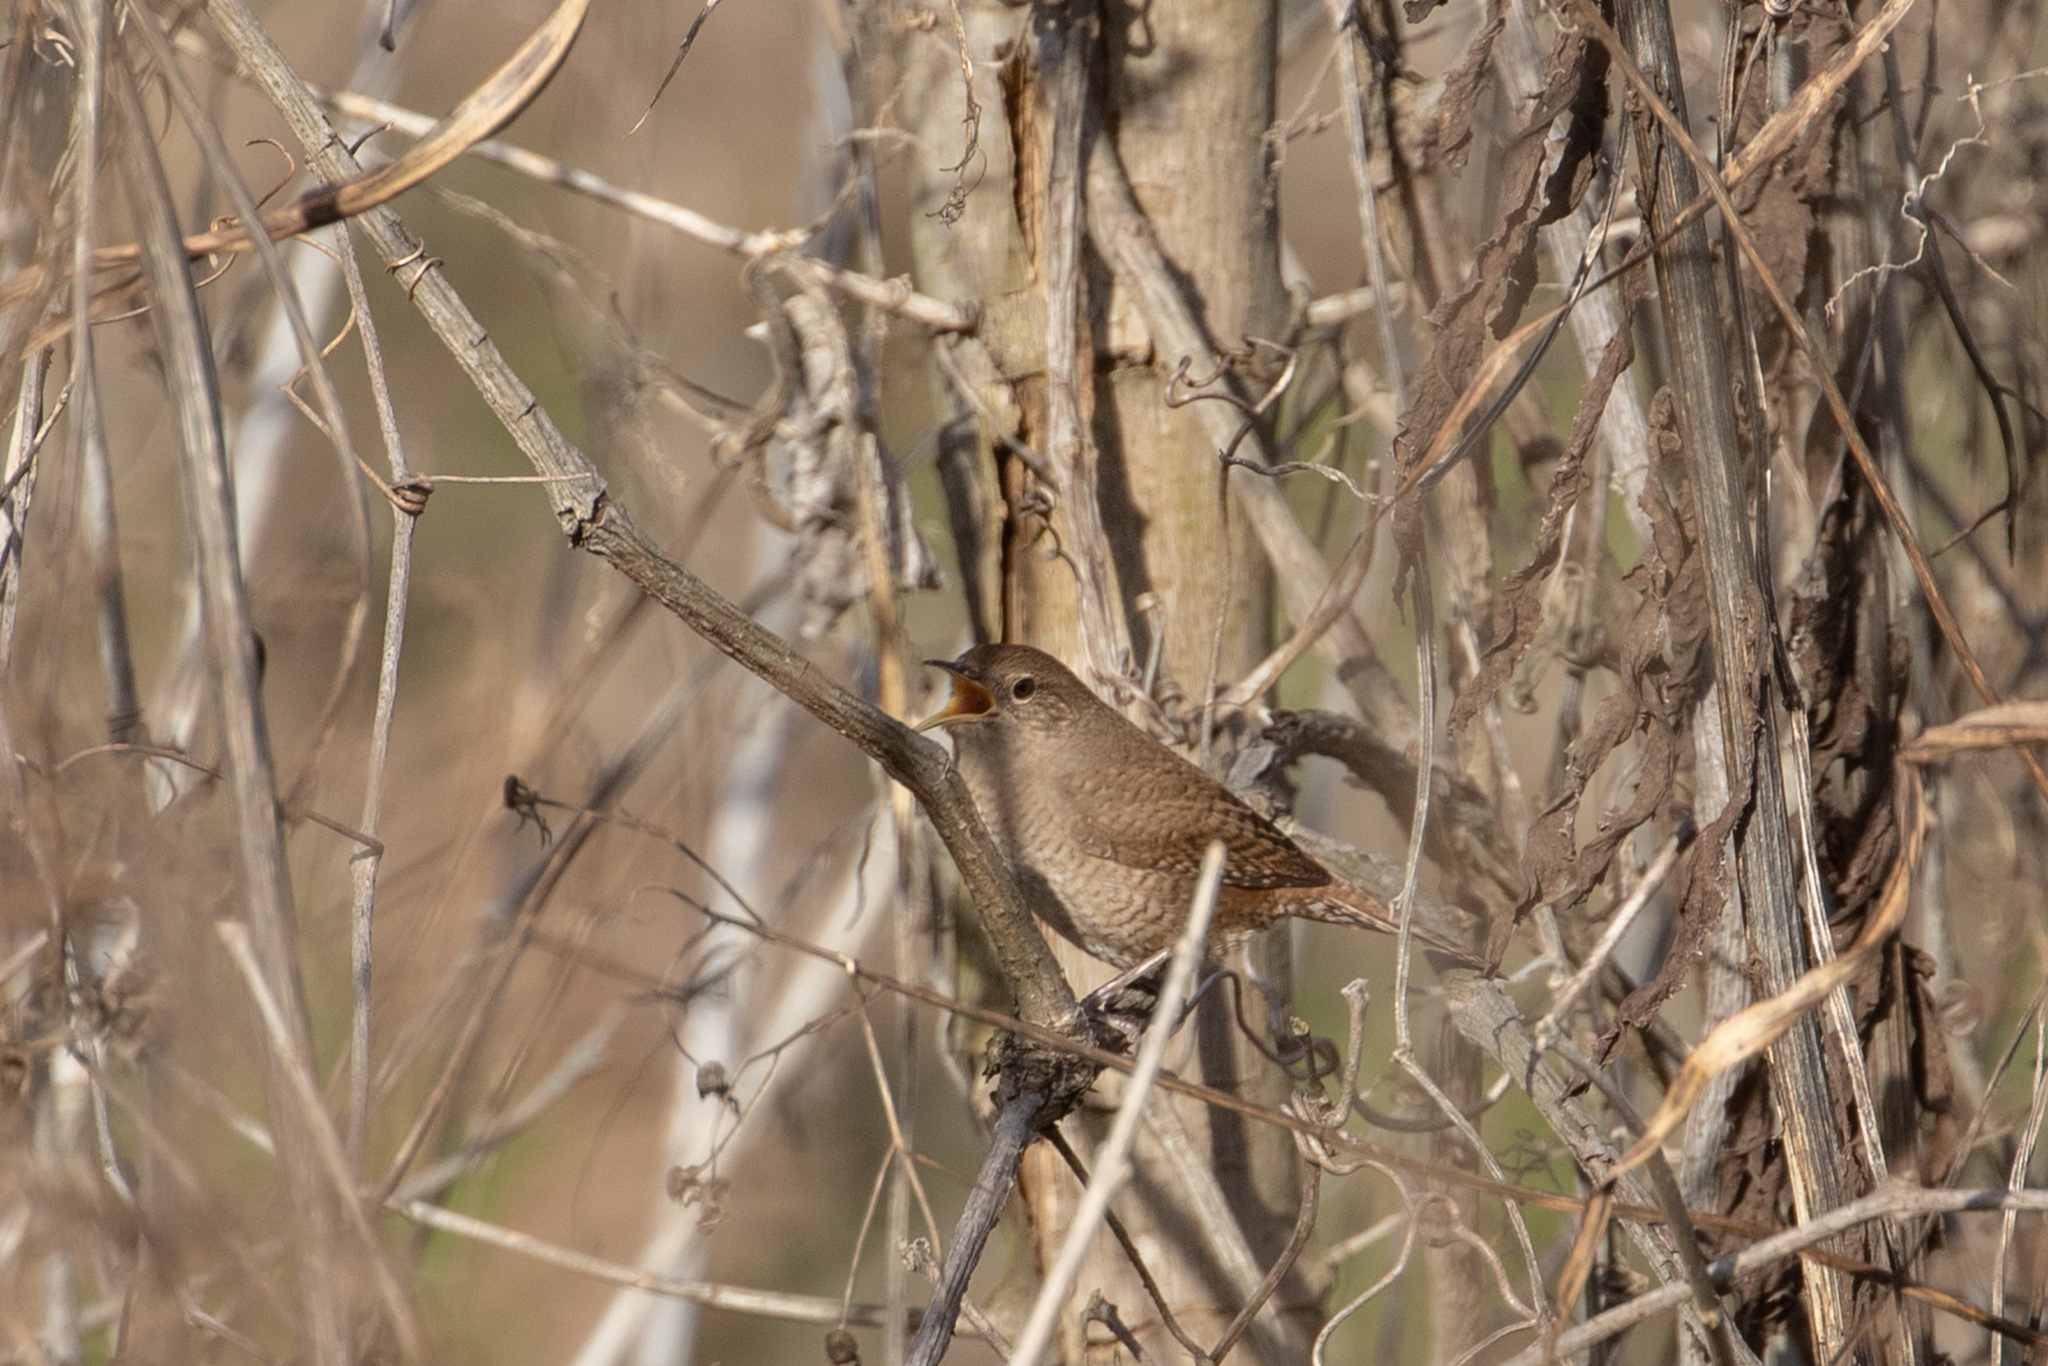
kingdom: Animalia
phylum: Chordata
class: Aves
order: Passeriformes
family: Troglodytidae
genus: Troglodytes
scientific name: Troglodytes aedon
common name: House wren
